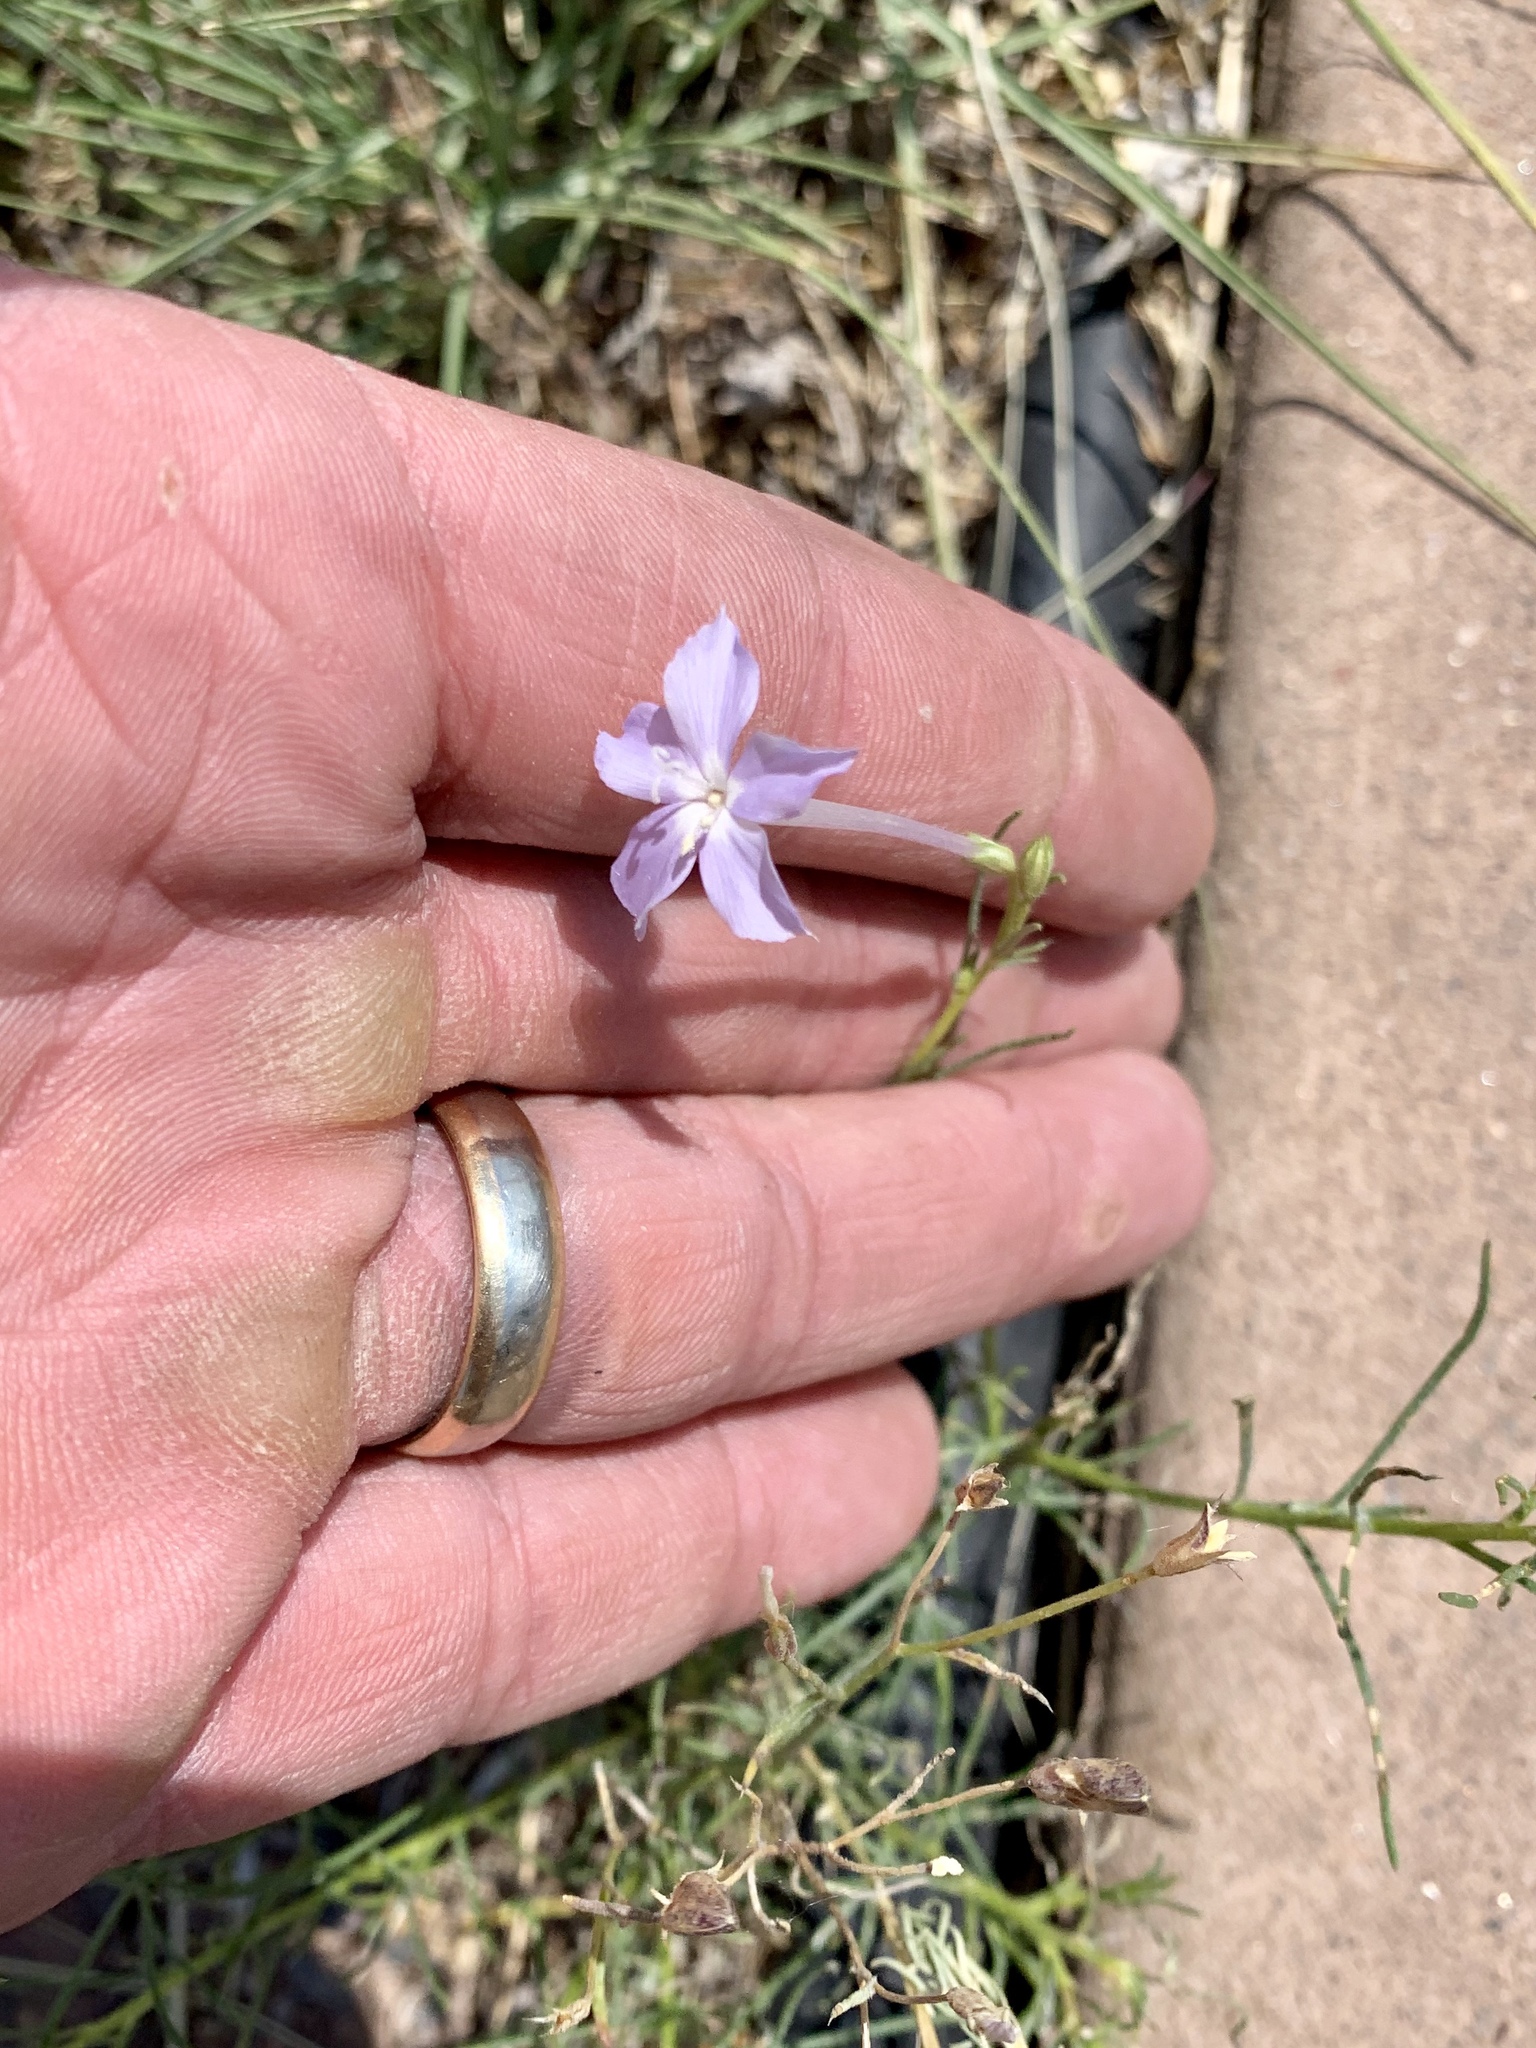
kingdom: Plantae
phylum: Tracheophyta
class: Magnoliopsida
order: Ericales
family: Polemoniaceae
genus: Ipomopsis
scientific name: Ipomopsis longiflora
